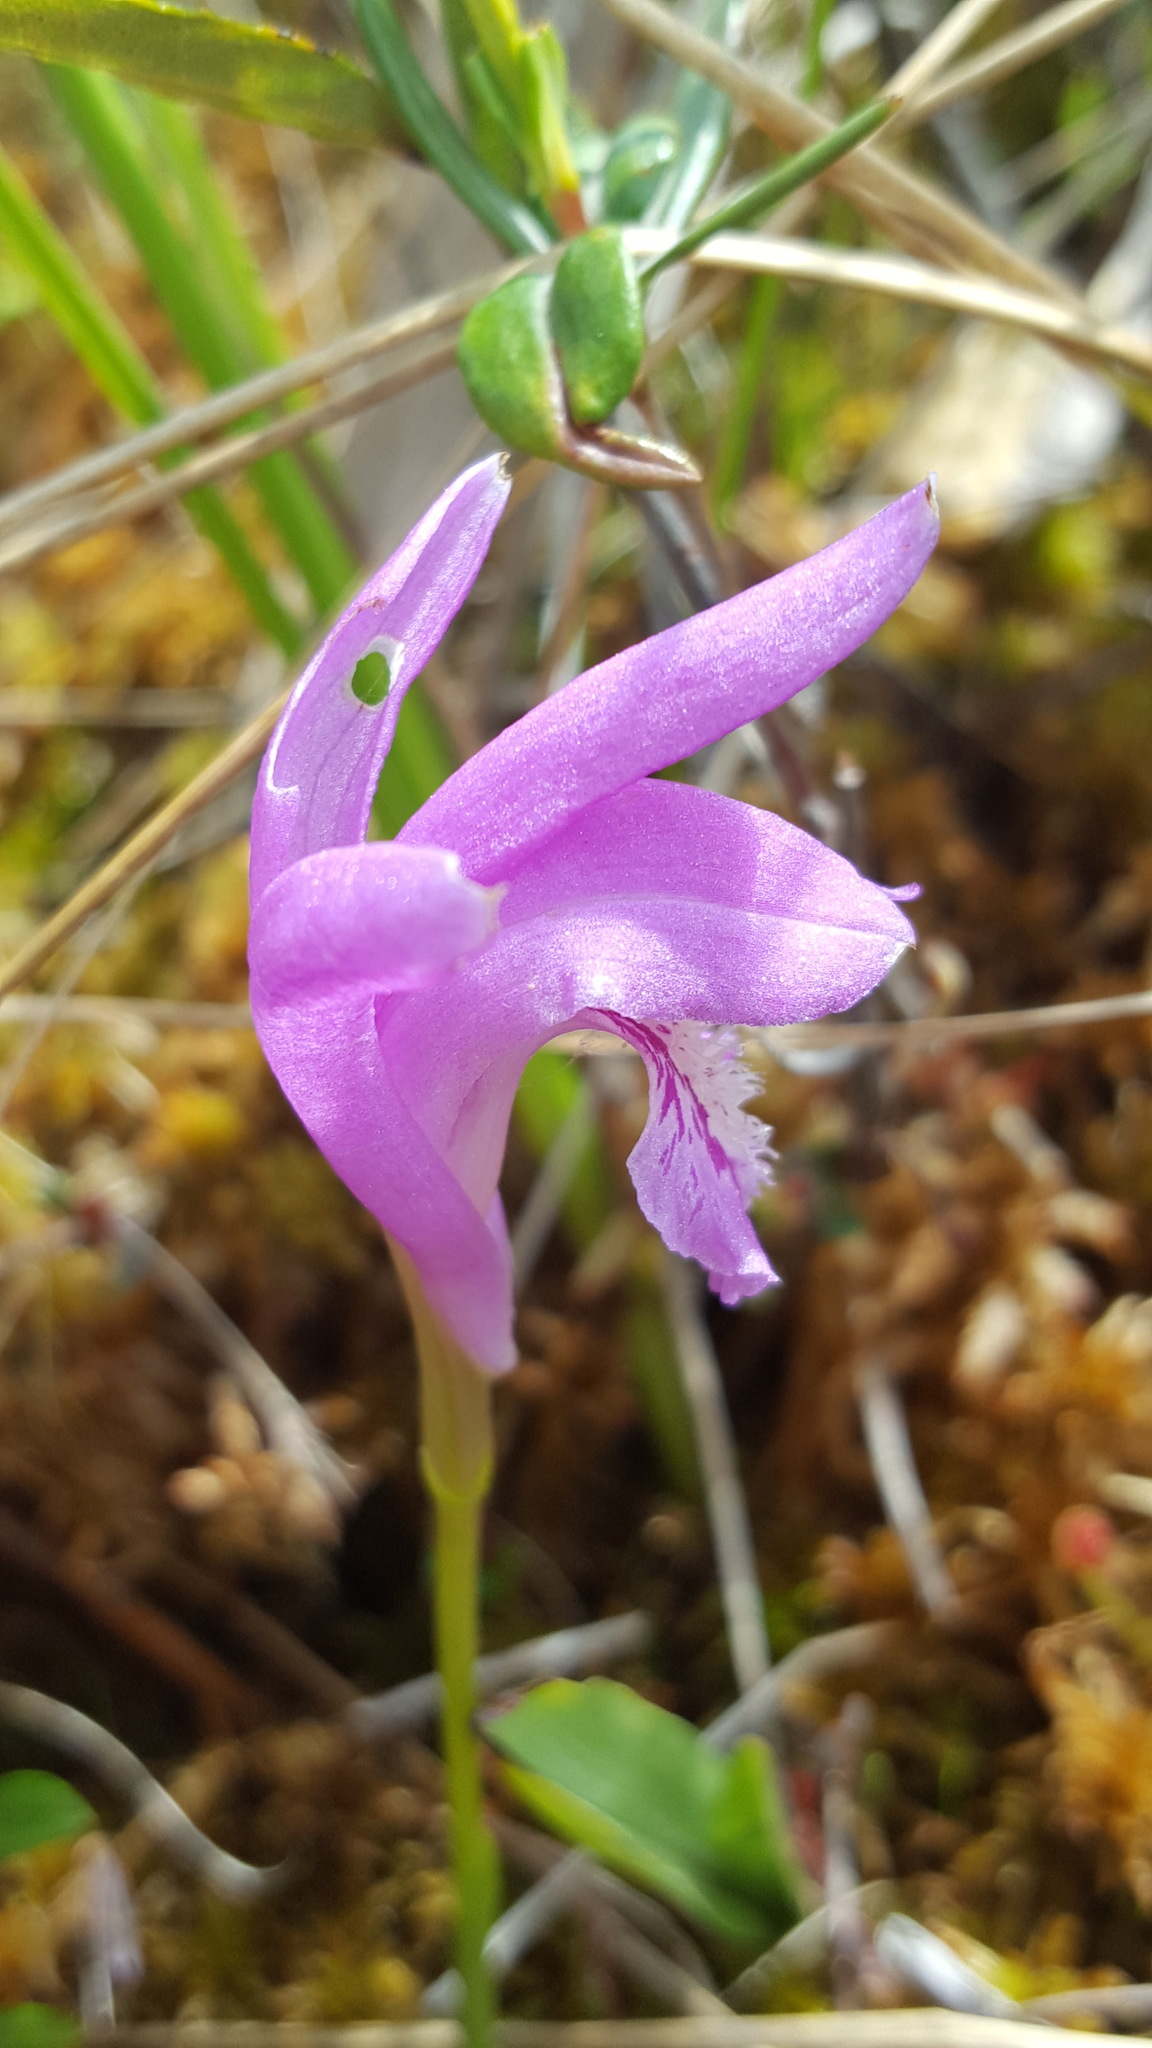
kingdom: Plantae
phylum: Tracheophyta
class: Liliopsida
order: Asparagales
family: Orchidaceae
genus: Arethusa
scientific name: Arethusa bulbosa
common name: Arethusa
